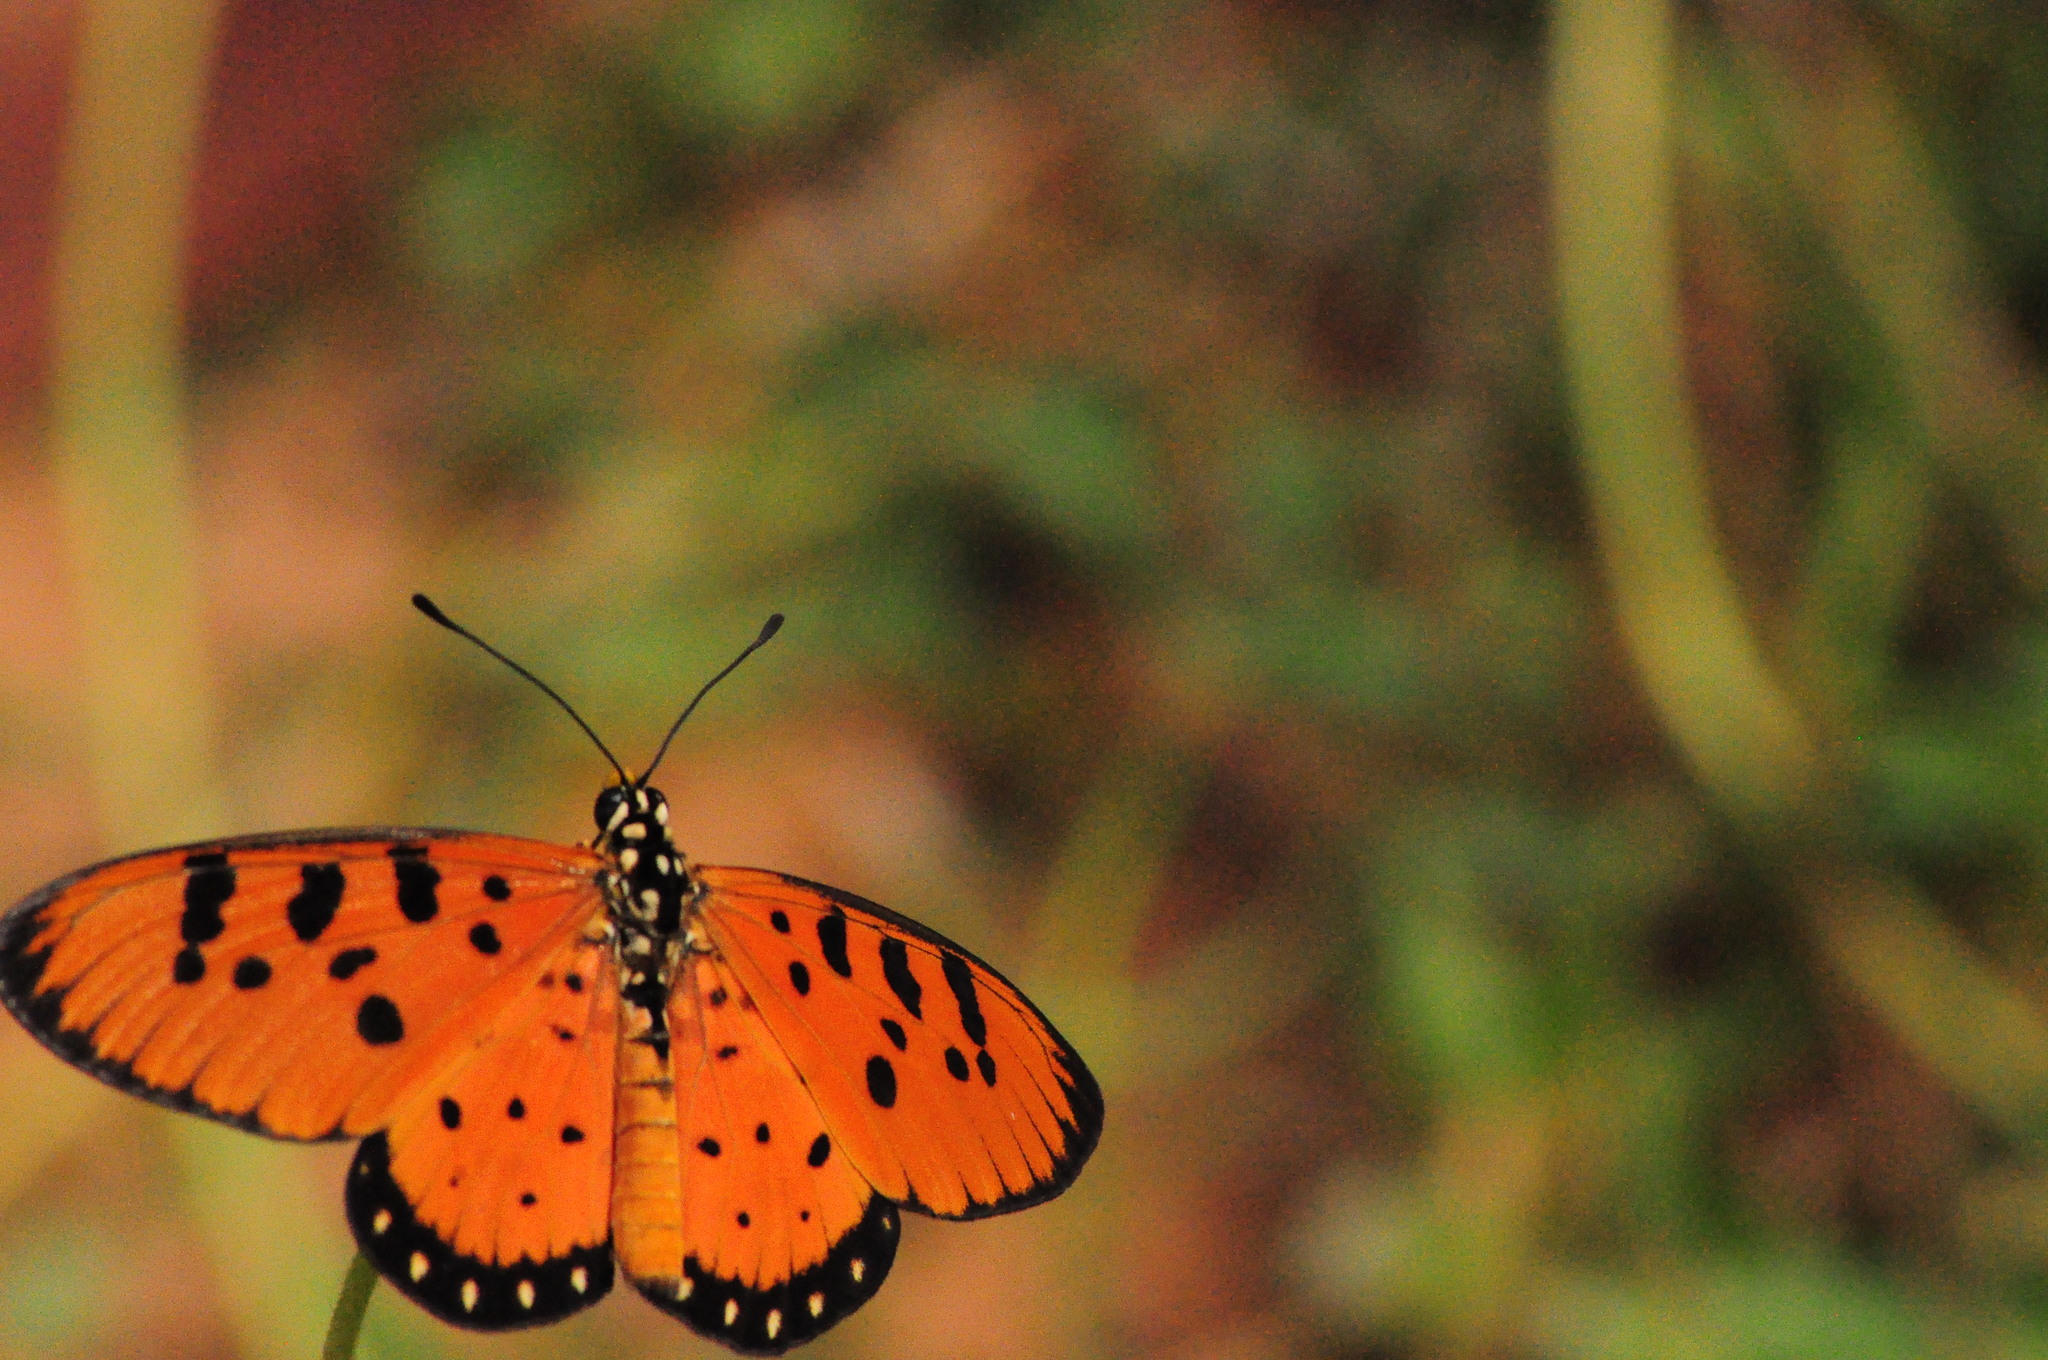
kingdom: Animalia
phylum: Arthropoda
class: Insecta
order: Lepidoptera
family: Nymphalidae
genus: Acraea
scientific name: Acraea terpsicore
